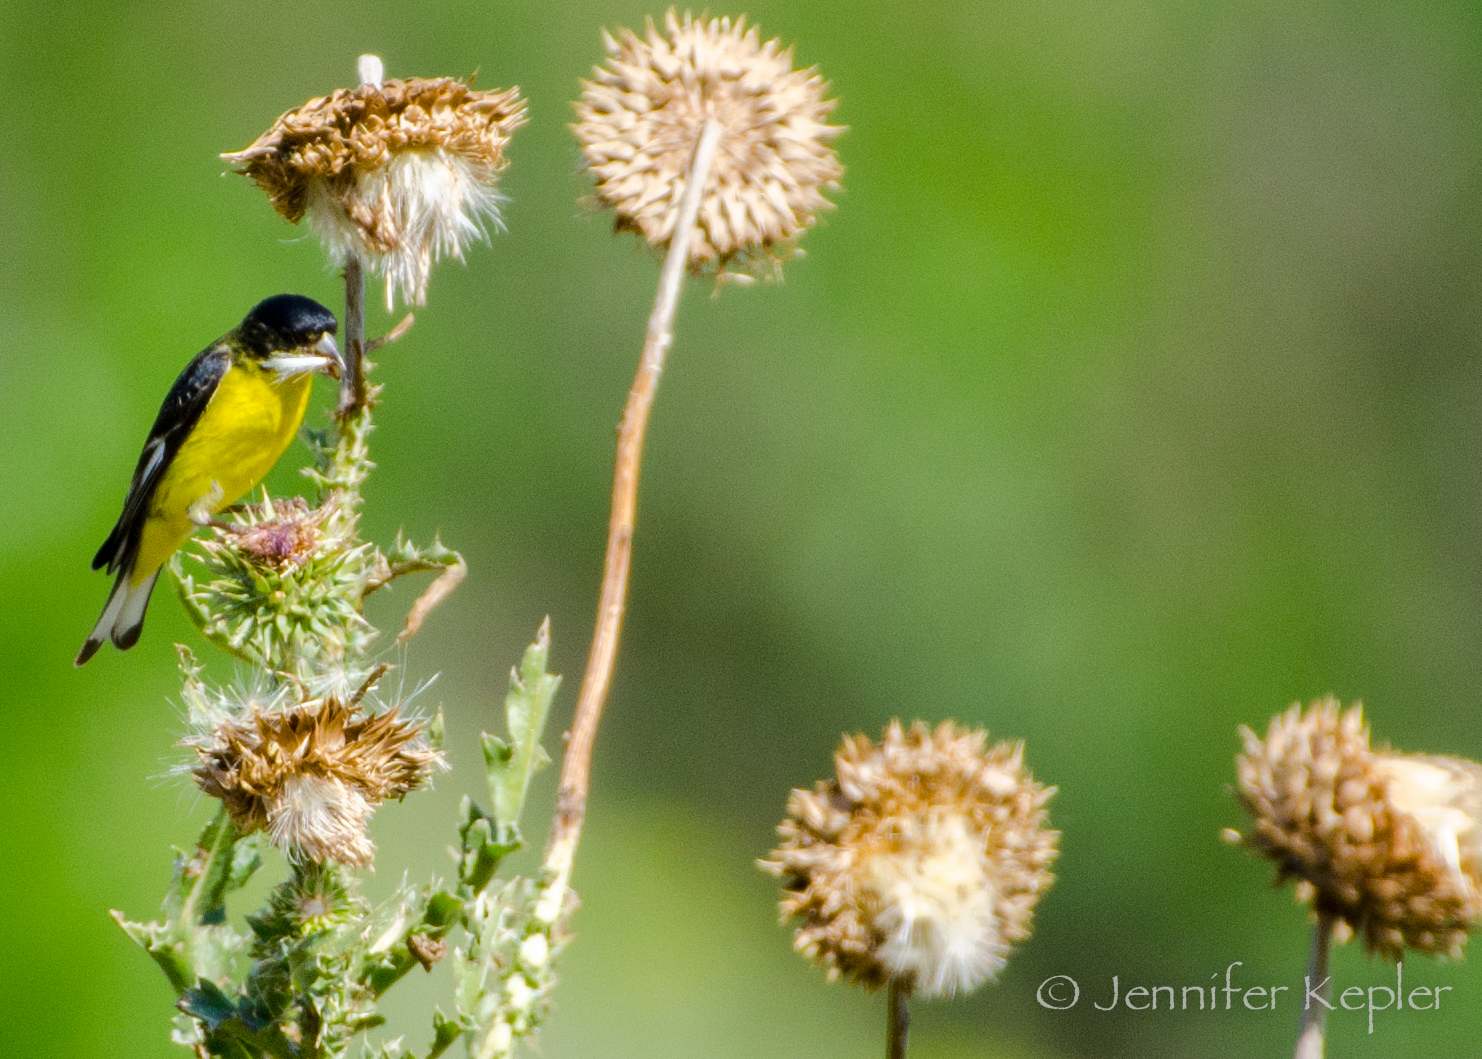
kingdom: Animalia
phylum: Chordata
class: Aves
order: Passeriformes
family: Fringillidae
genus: Spinus
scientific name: Spinus psaltria
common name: Lesser goldfinch
